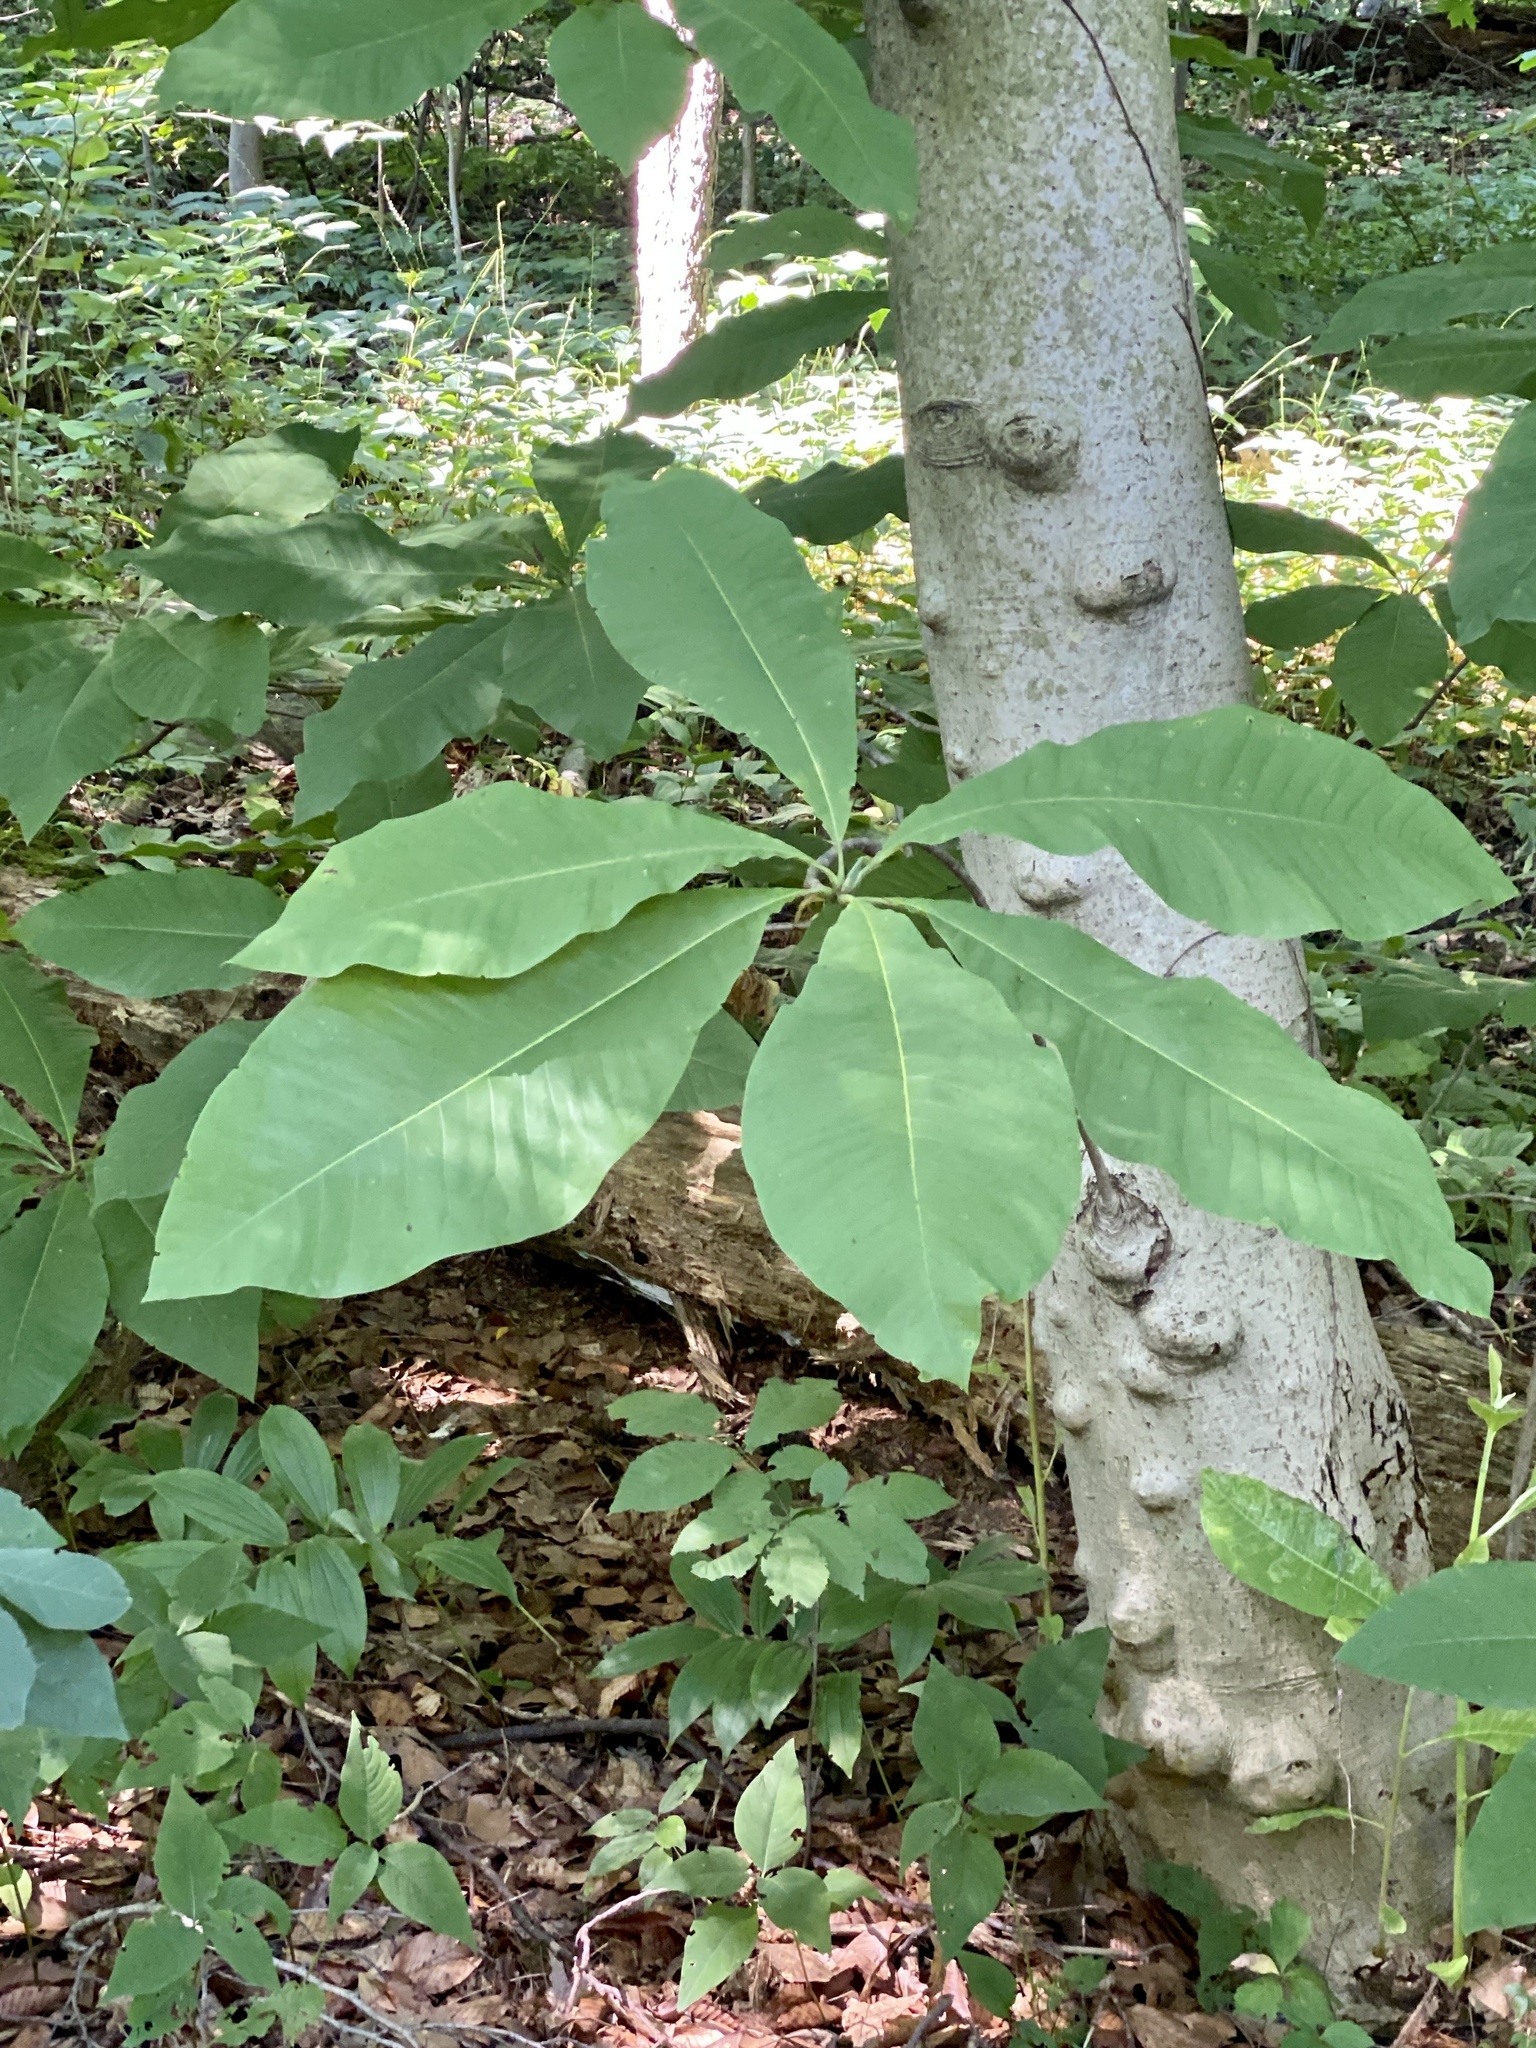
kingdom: Plantae
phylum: Tracheophyta
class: Magnoliopsida
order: Magnoliales
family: Magnoliaceae
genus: Magnolia
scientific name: Magnolia tripetala
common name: Umbrella magnolia
